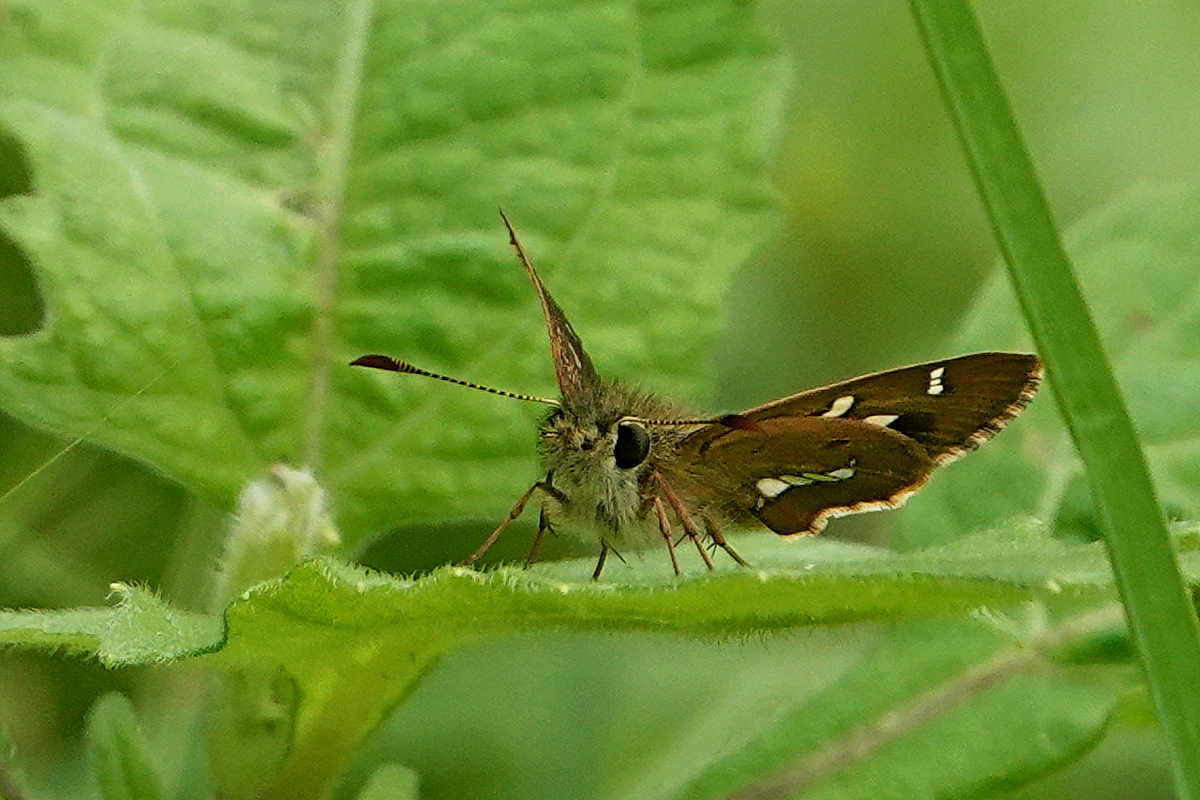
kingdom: Animalia
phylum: Arthropoda
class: Insecta
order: Lepidoptera
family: Hesperiidae
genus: Dispar
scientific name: Dispar compacta
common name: Barred skipper
